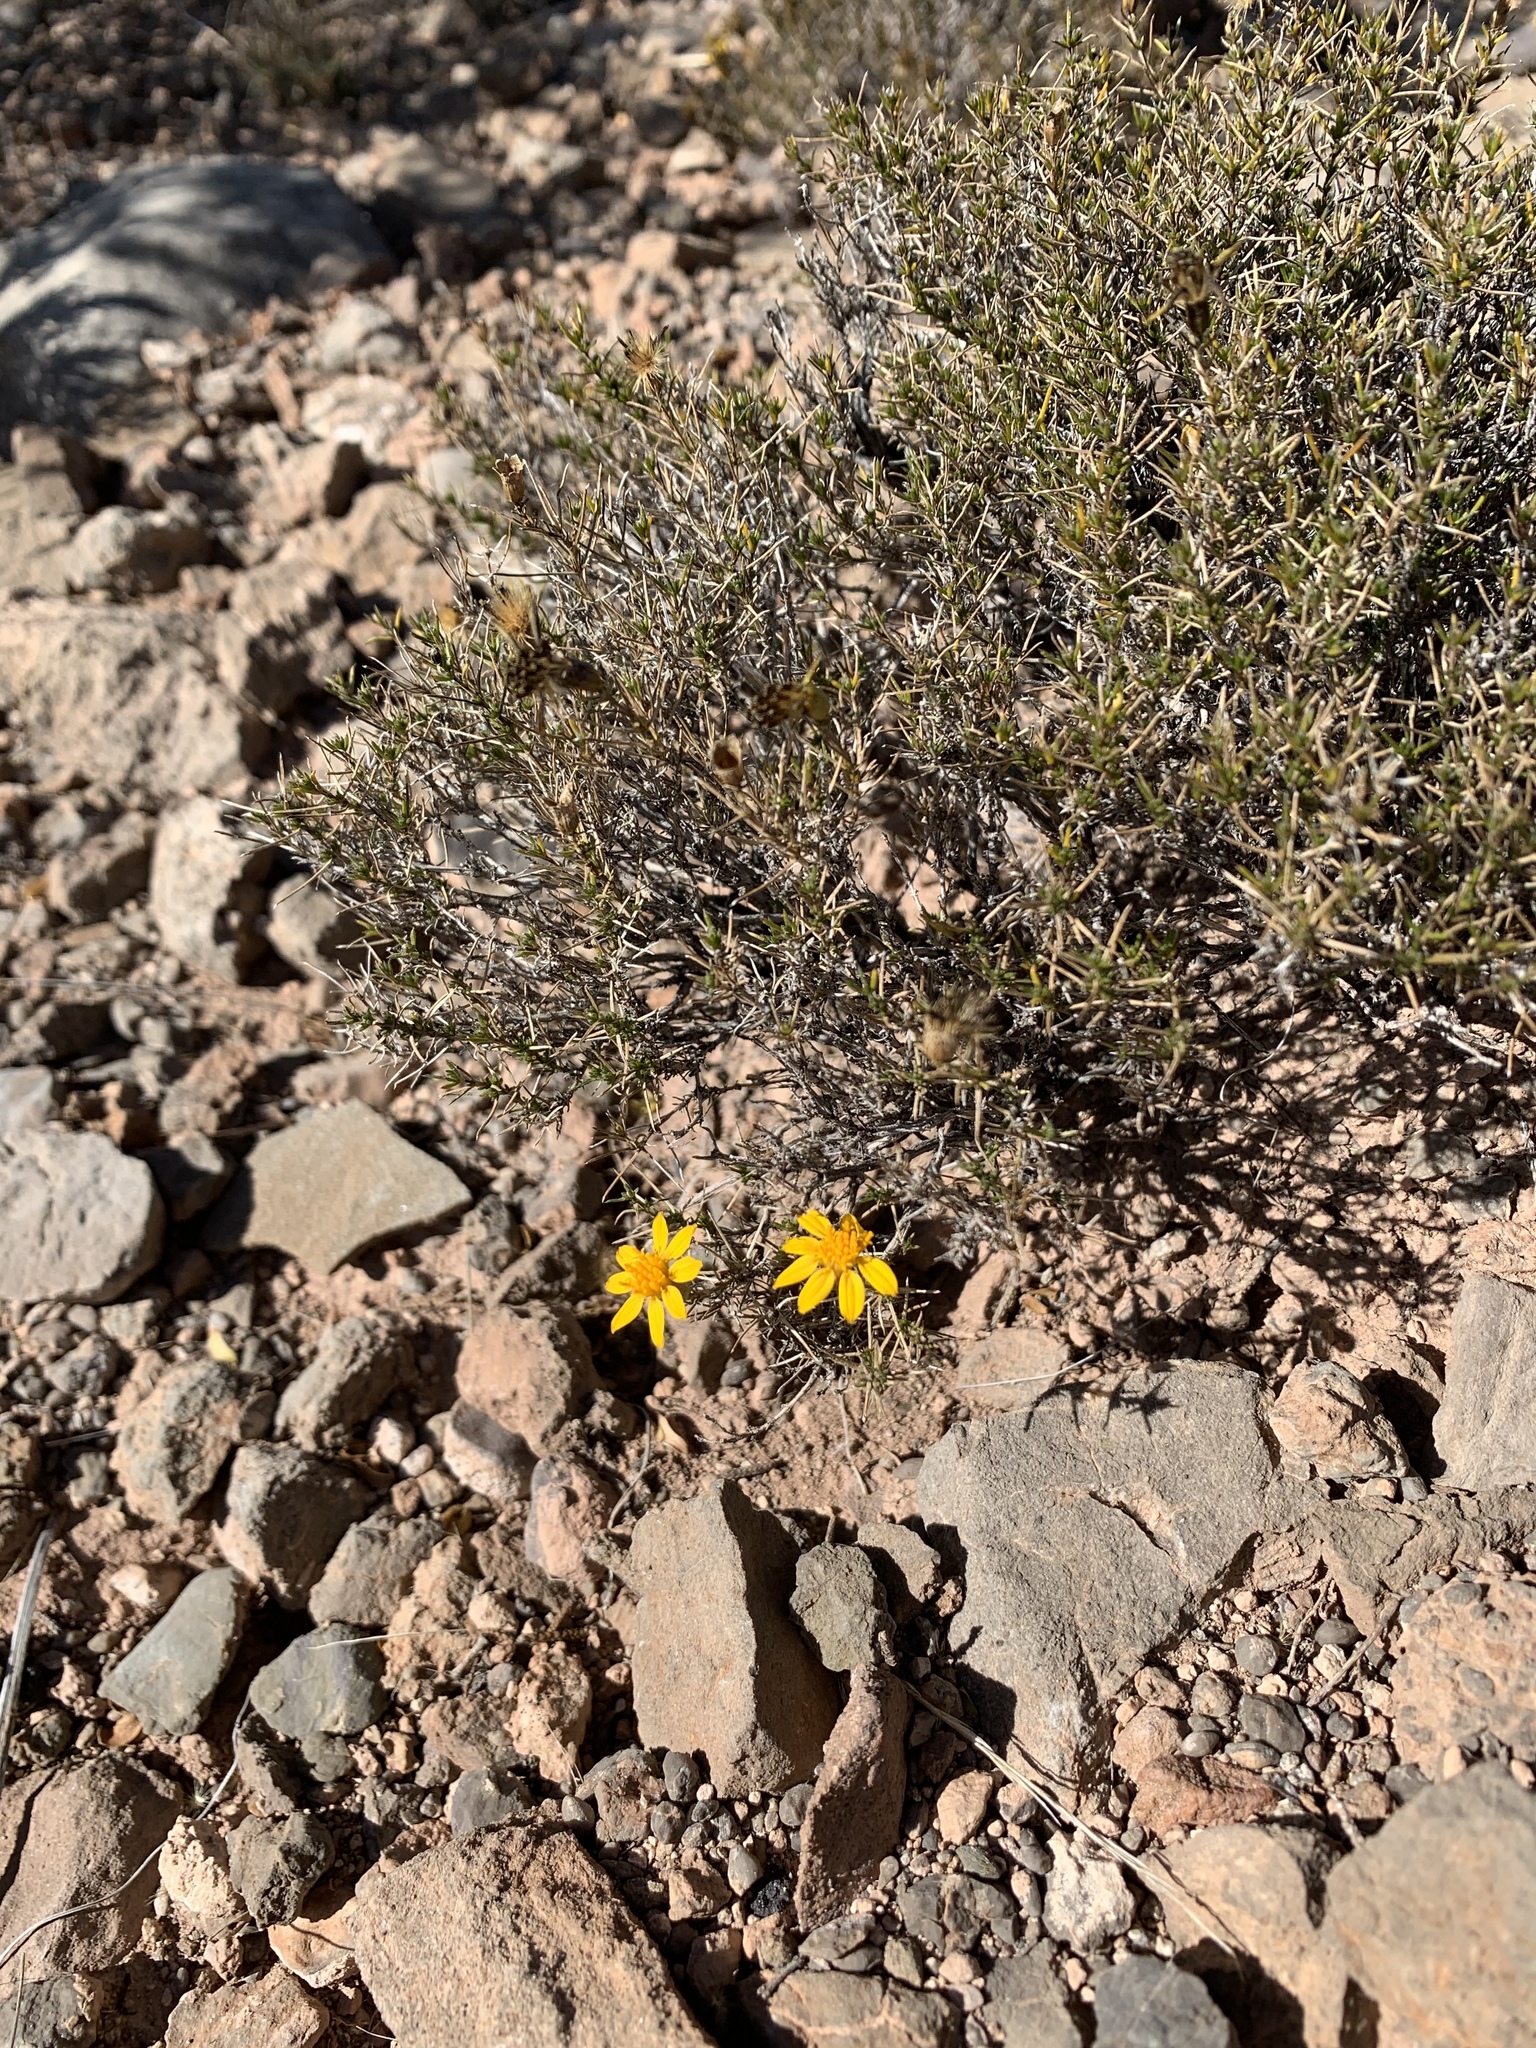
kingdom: Plantae
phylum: Tracheophyta
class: Magnoliopsida
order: Asterales
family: Asteraceae
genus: Thymophylla
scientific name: Thymophylla acerosa
